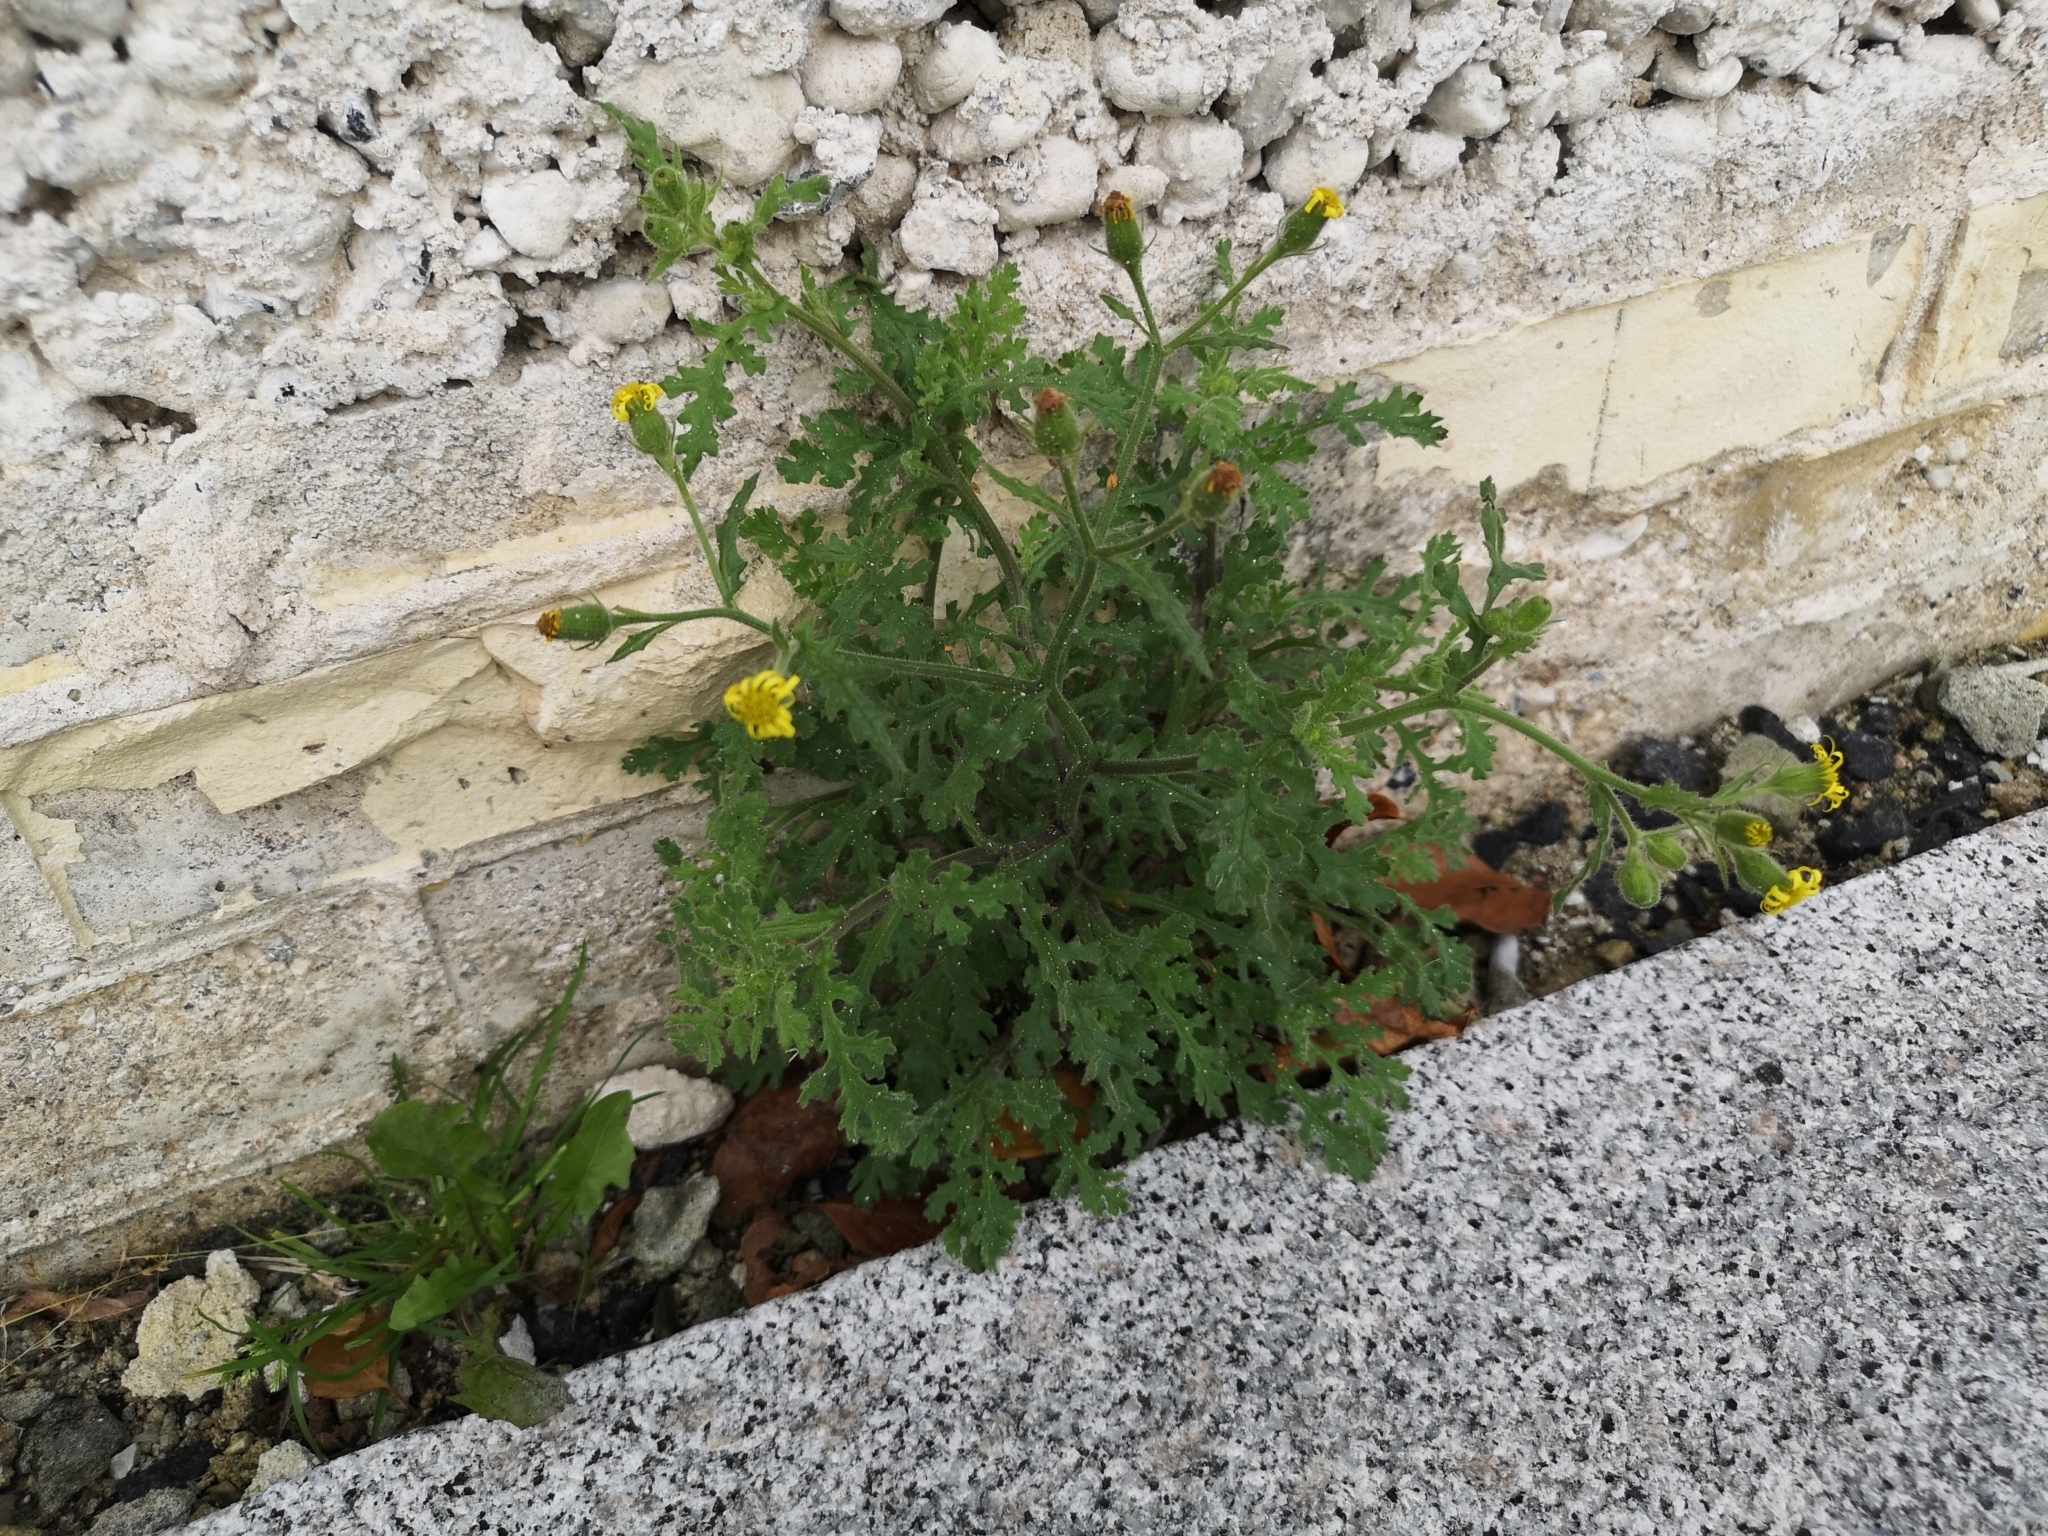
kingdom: Plantae
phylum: Tracheophyta
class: Magnoliopsida
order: Asterales
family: Asteraceae
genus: Senecio
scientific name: Senecio viscosus
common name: Sticky groundsel
